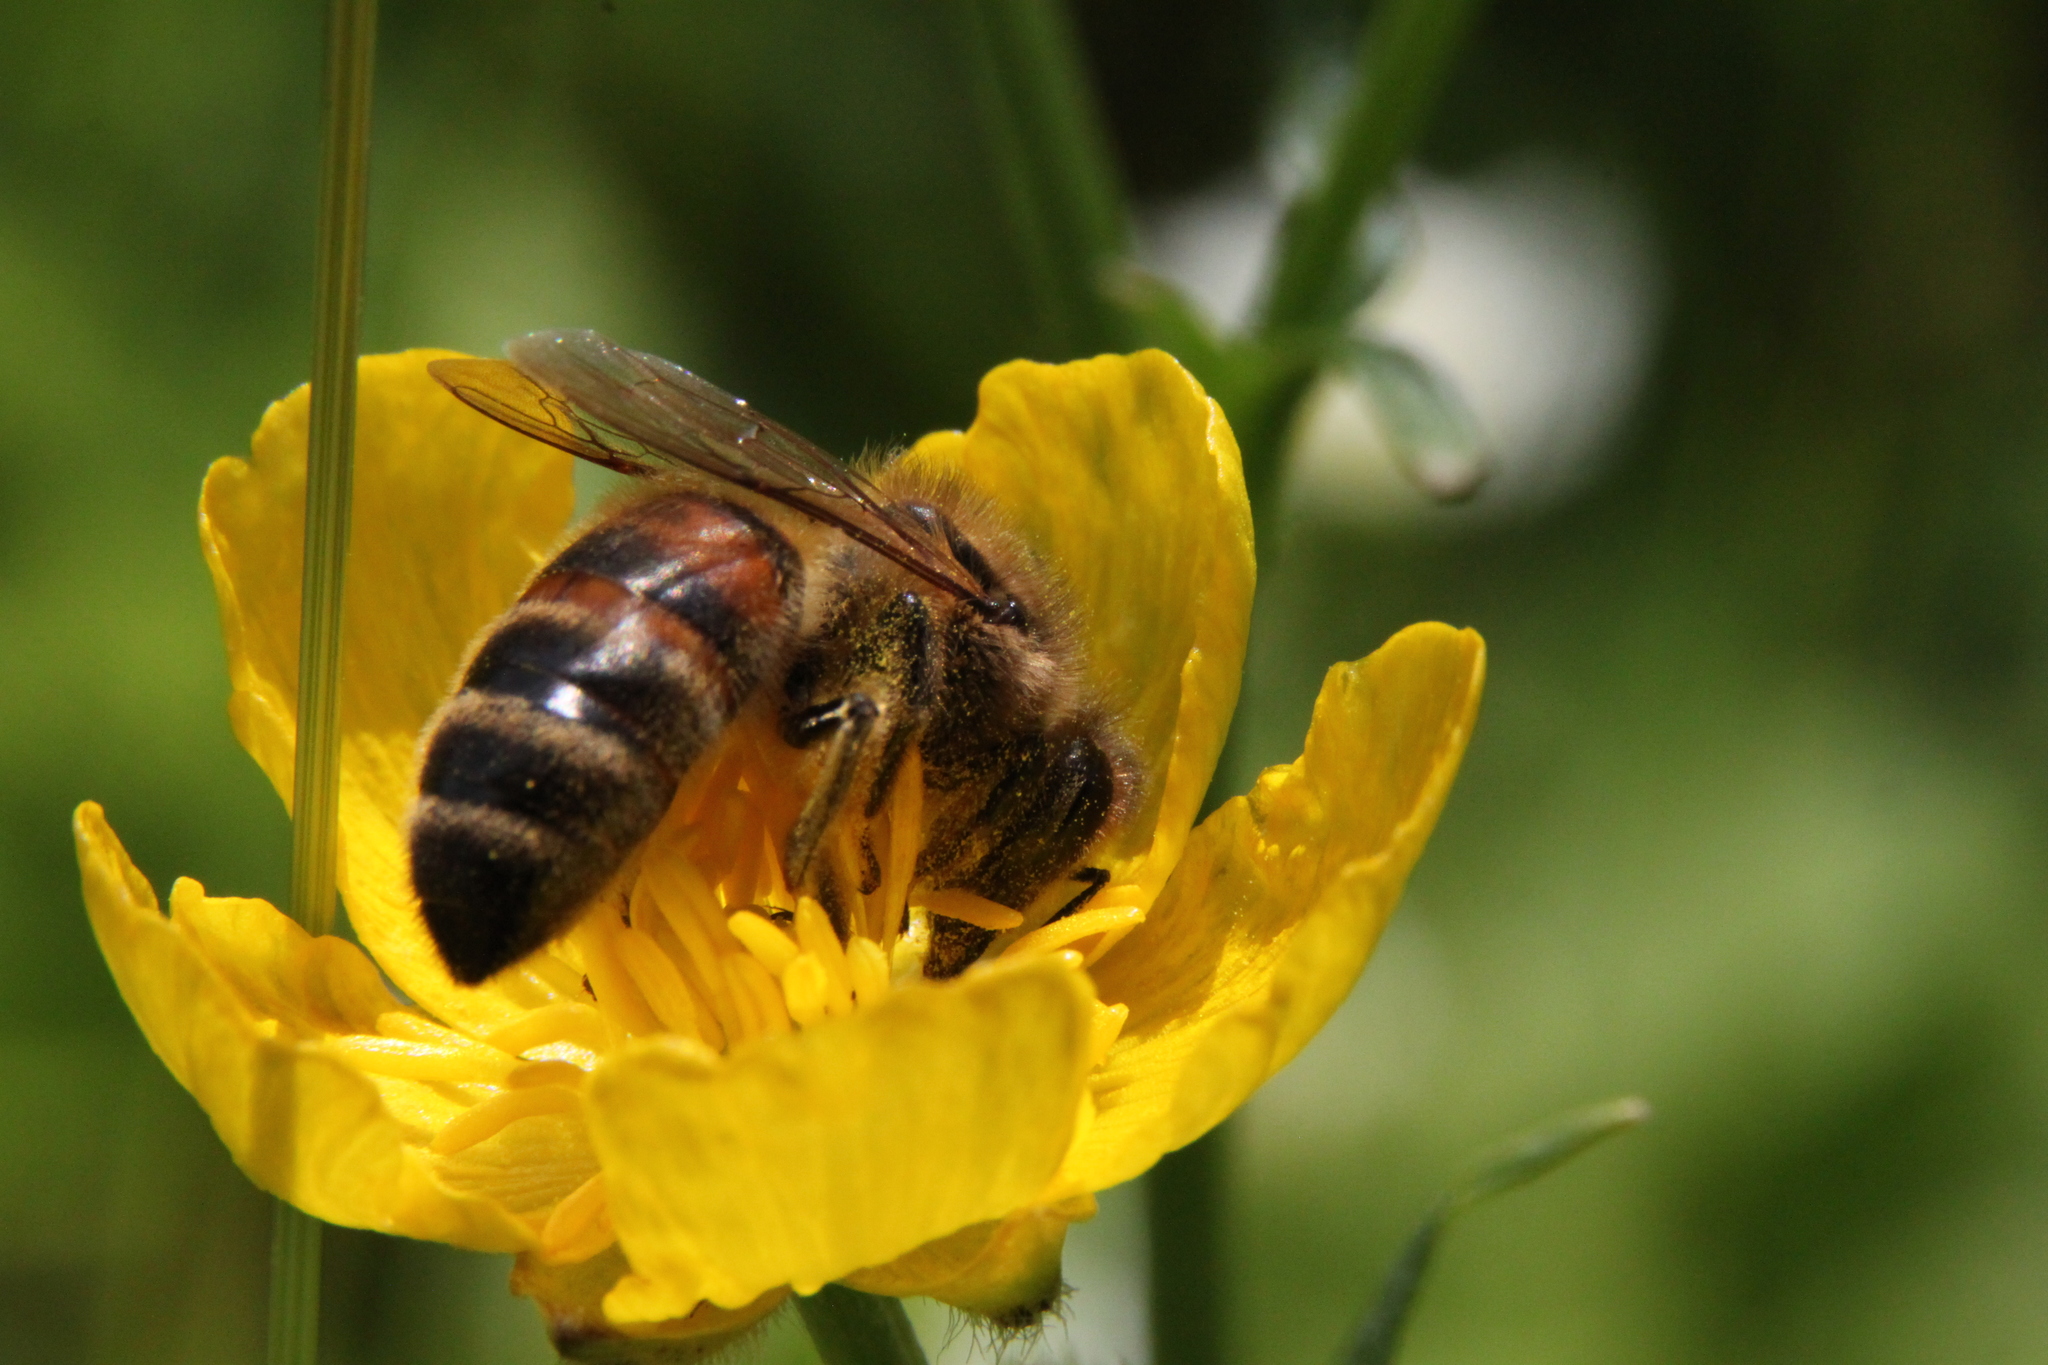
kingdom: Animalia
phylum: Arthropoda
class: Insecta
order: Hymenoptera
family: Apidae
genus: Apis
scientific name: Apis mellifera
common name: Honey bee
